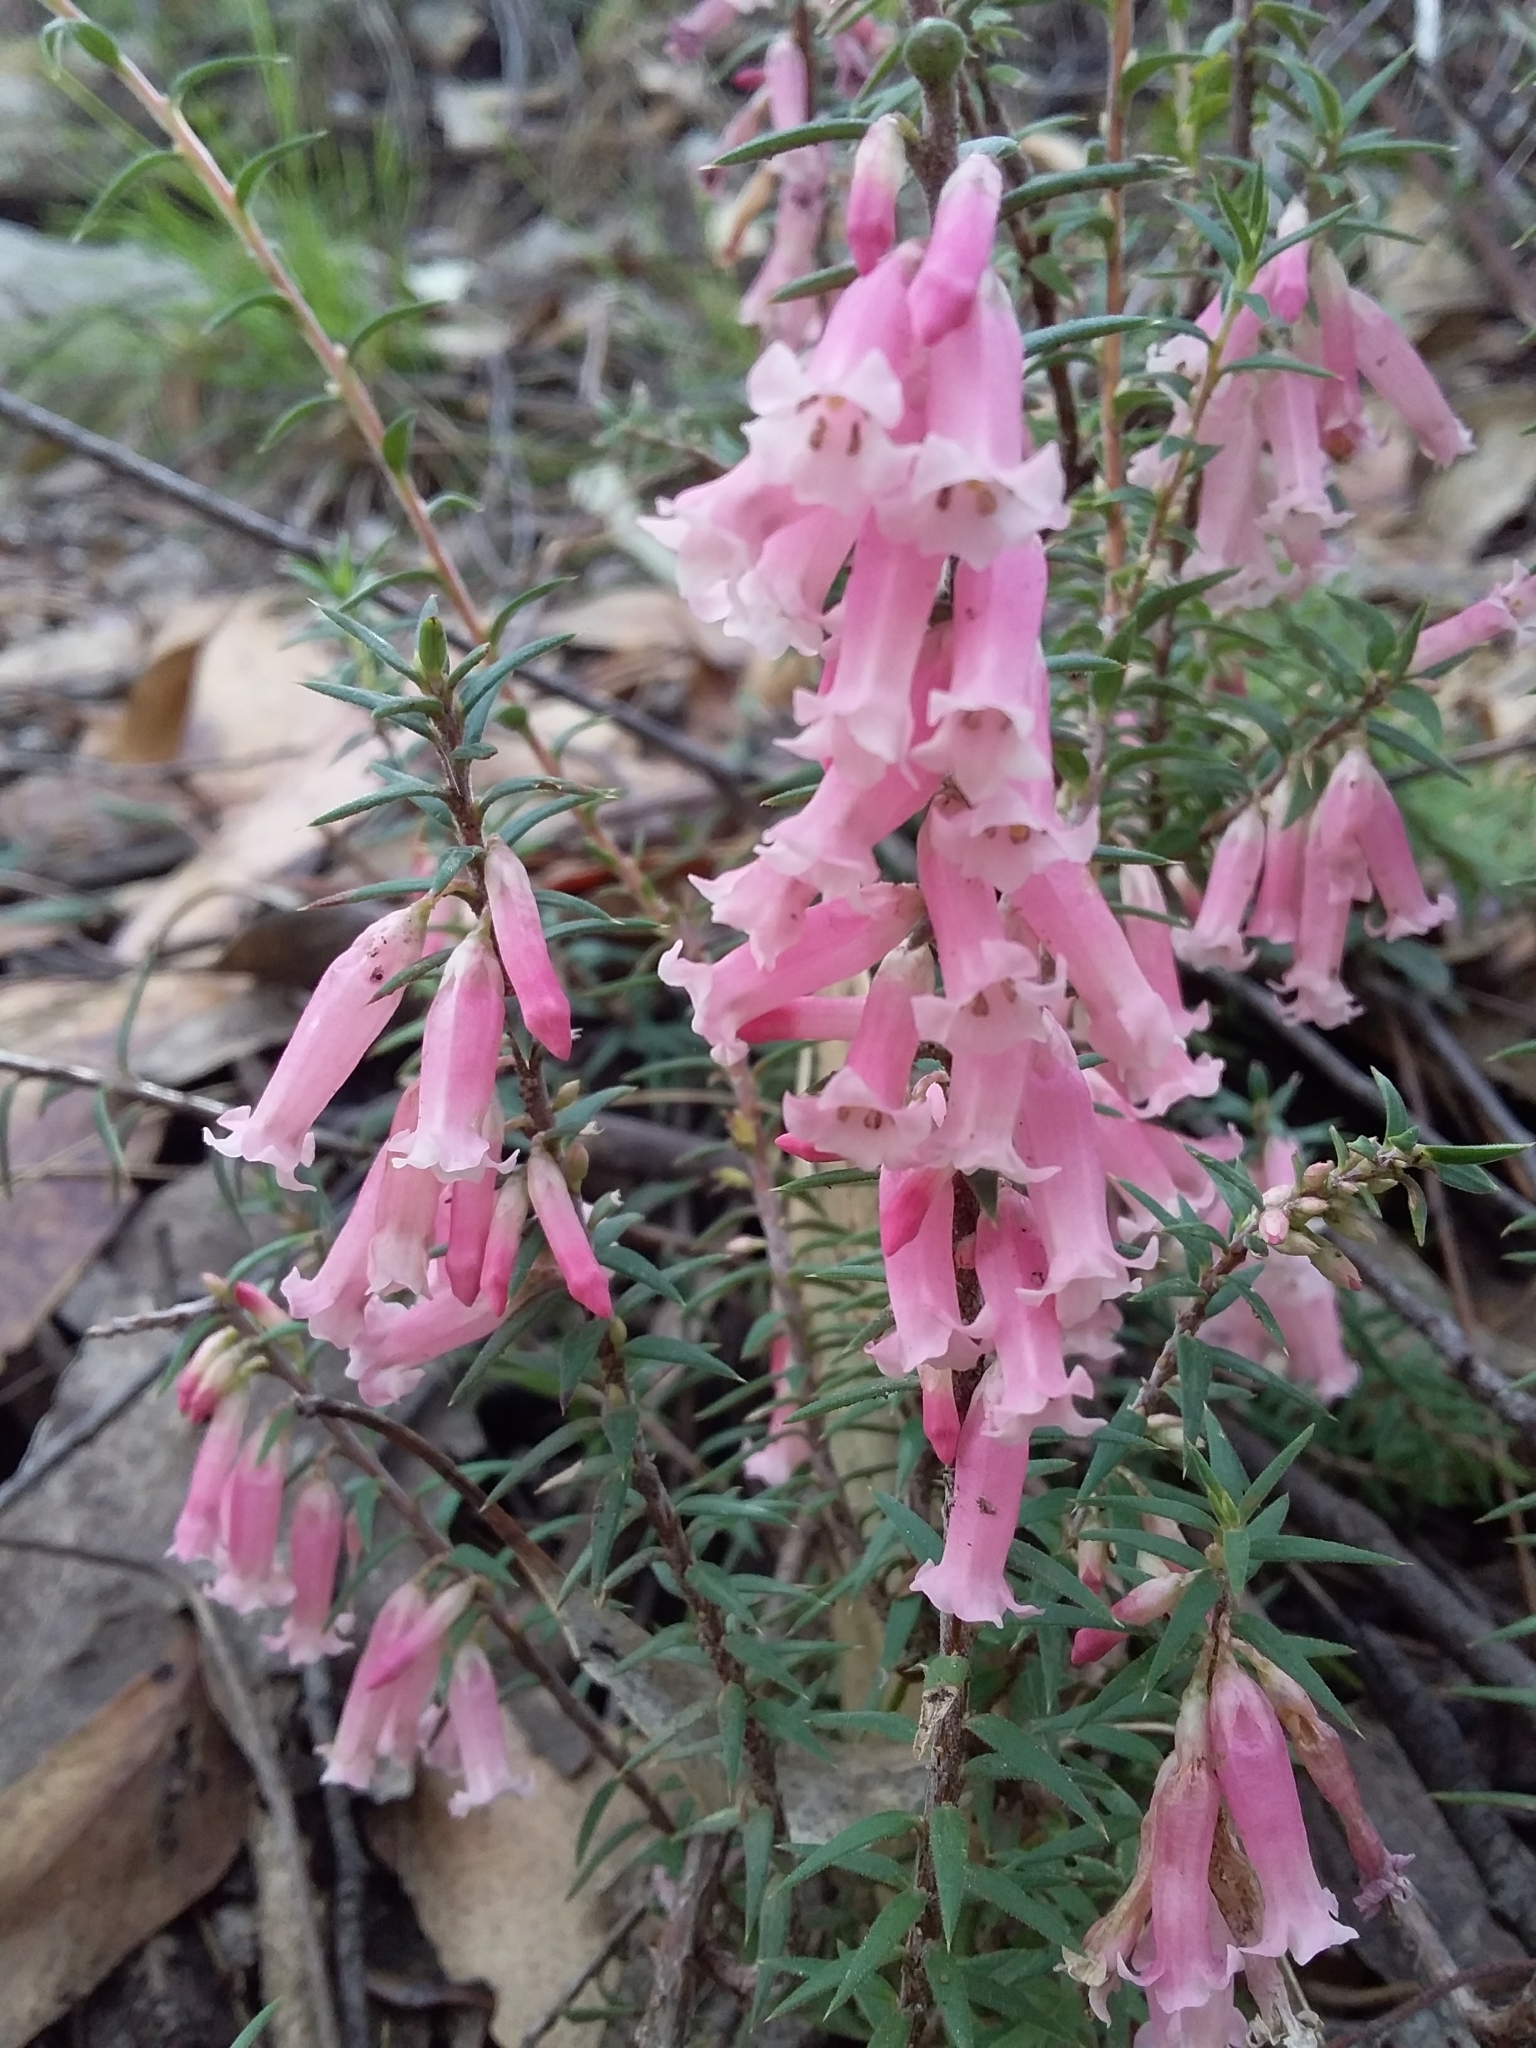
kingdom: Plantae
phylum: Tracheophyta
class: Magnoliopsida
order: Ericales
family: Ericaceae
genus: Epacris
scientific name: Epacris impressa
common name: Common-heath
